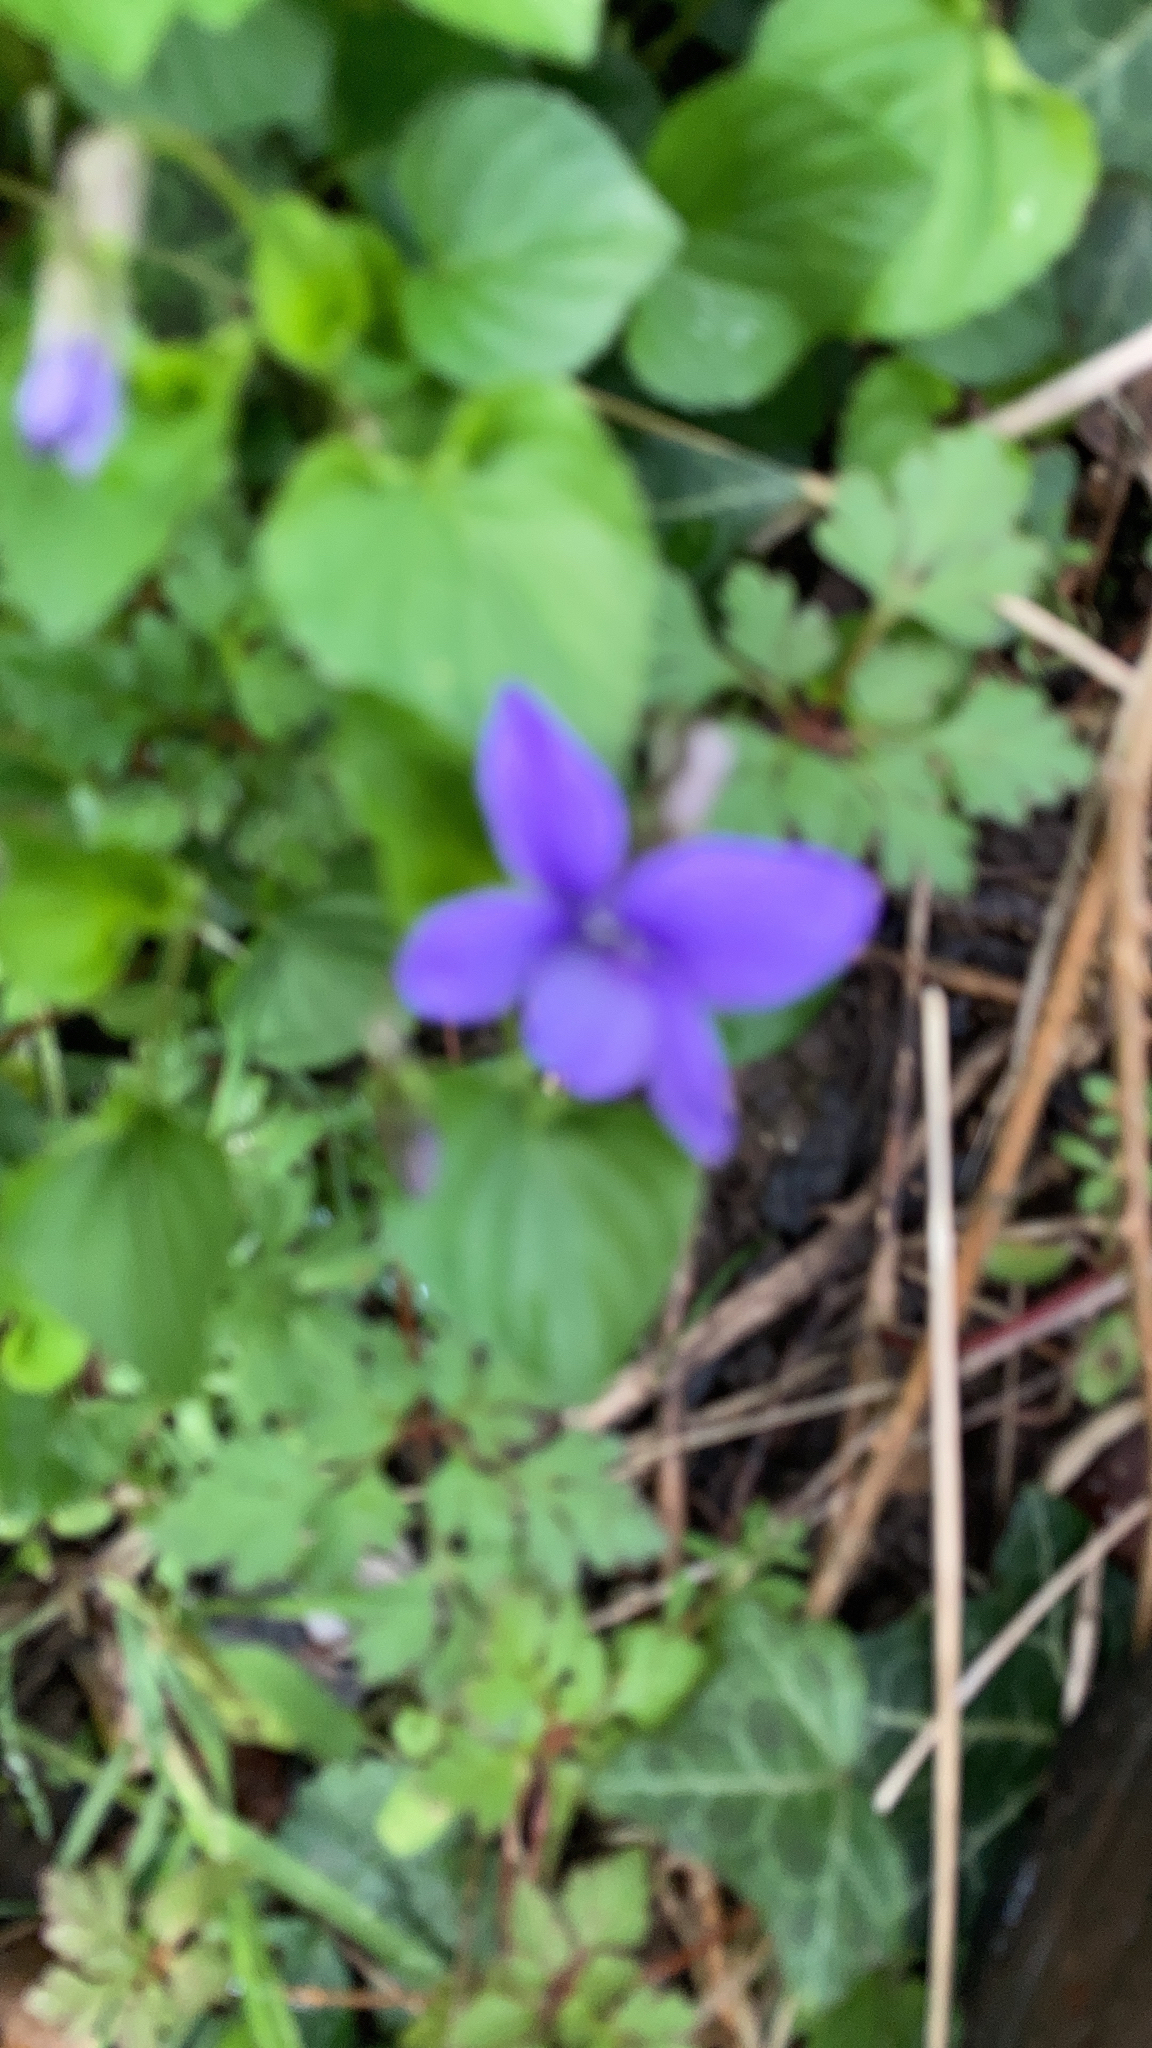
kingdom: Plantae
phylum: Tracheophyta
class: Magnoliopsida
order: Malpighiales
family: Violaceae
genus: Viola
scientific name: Viola riviniana
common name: Common dog-violet
